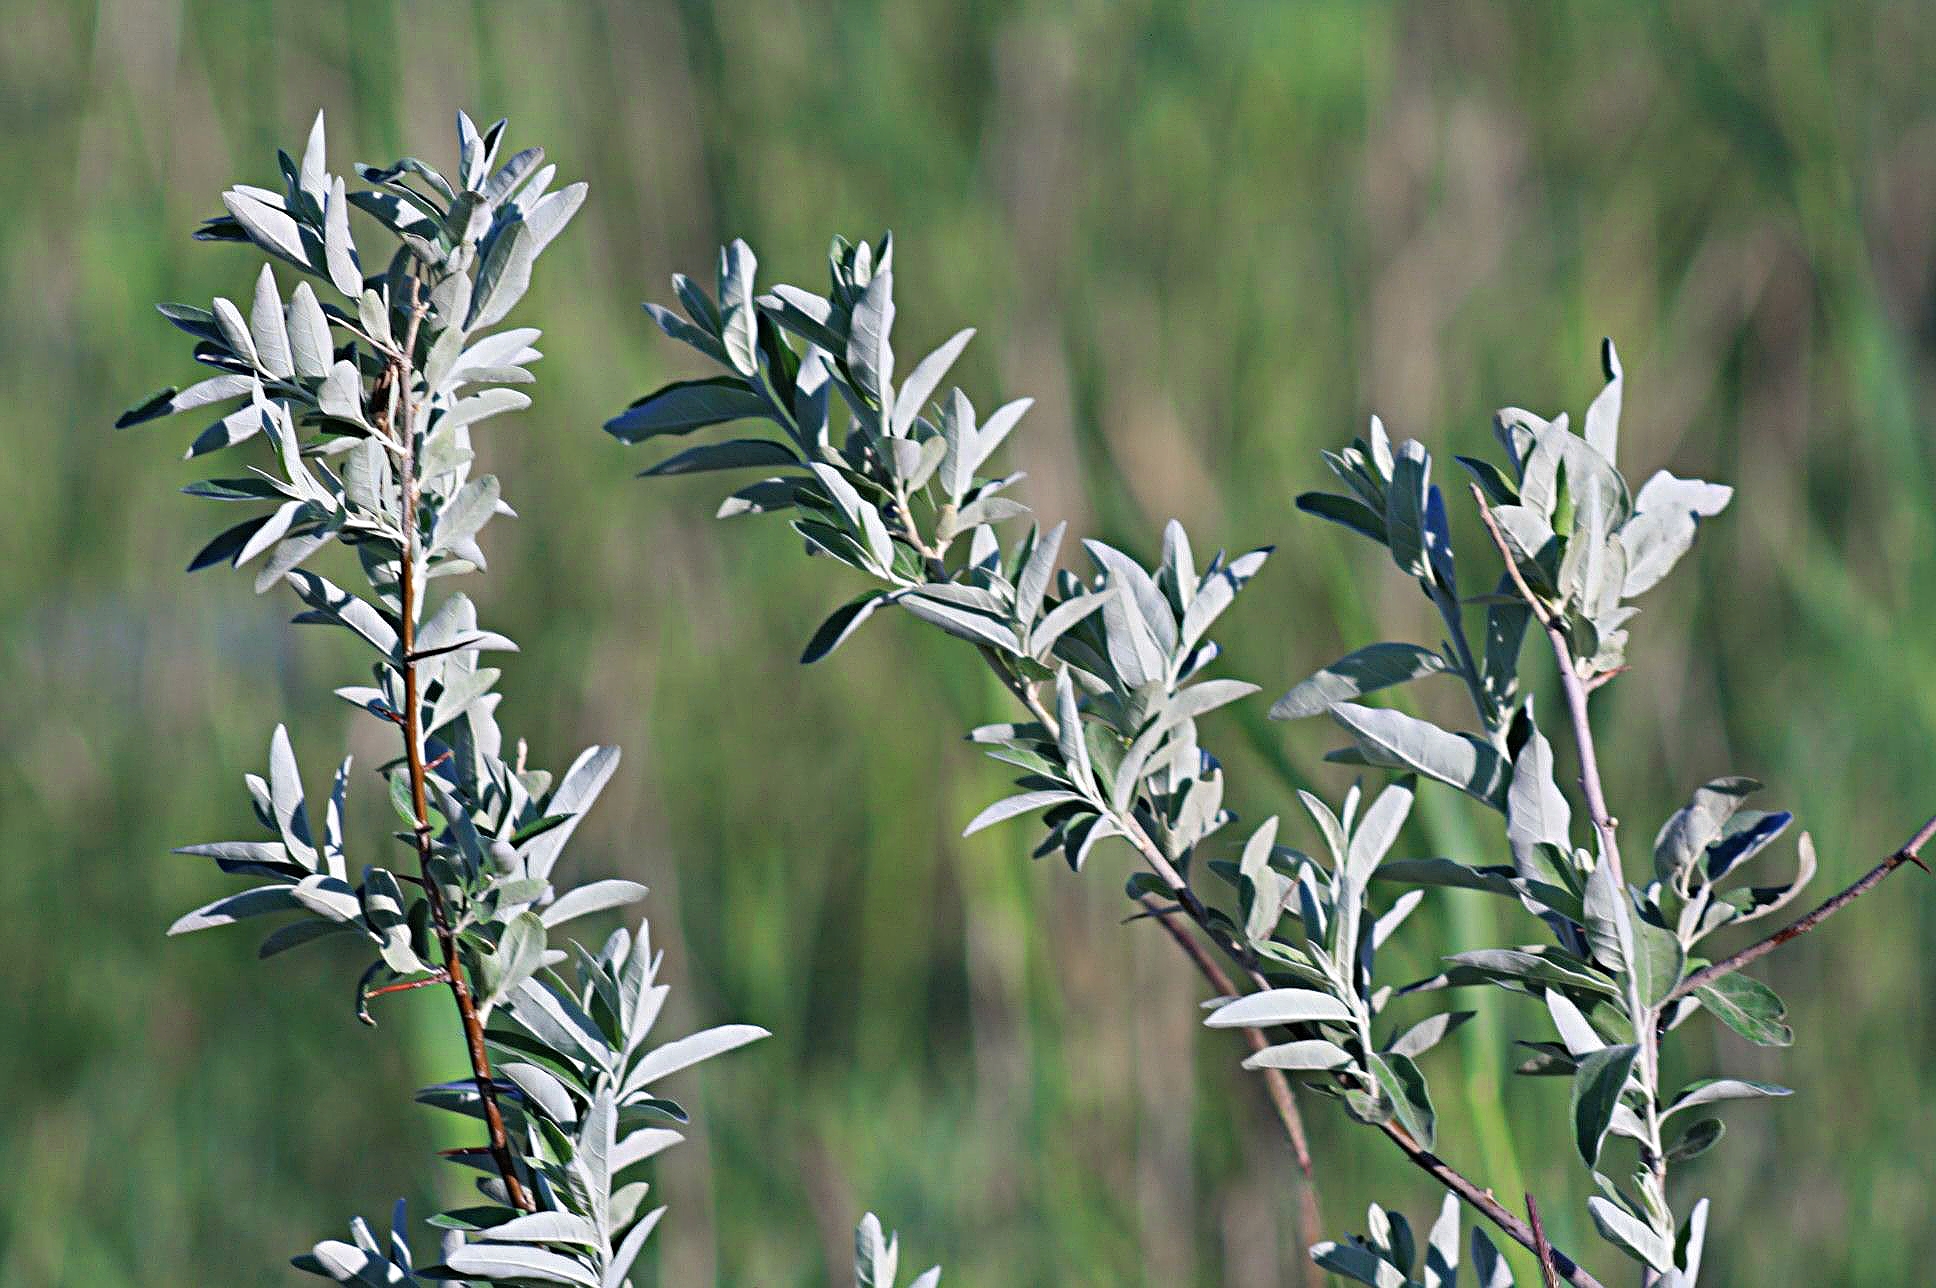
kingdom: Plantae
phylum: Tracheophyta
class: Magnoliopsida
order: Rosales
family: Elaeagnaceae
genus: Elaeagnus
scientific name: Elaeagnus angustifolia
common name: Russian olive
